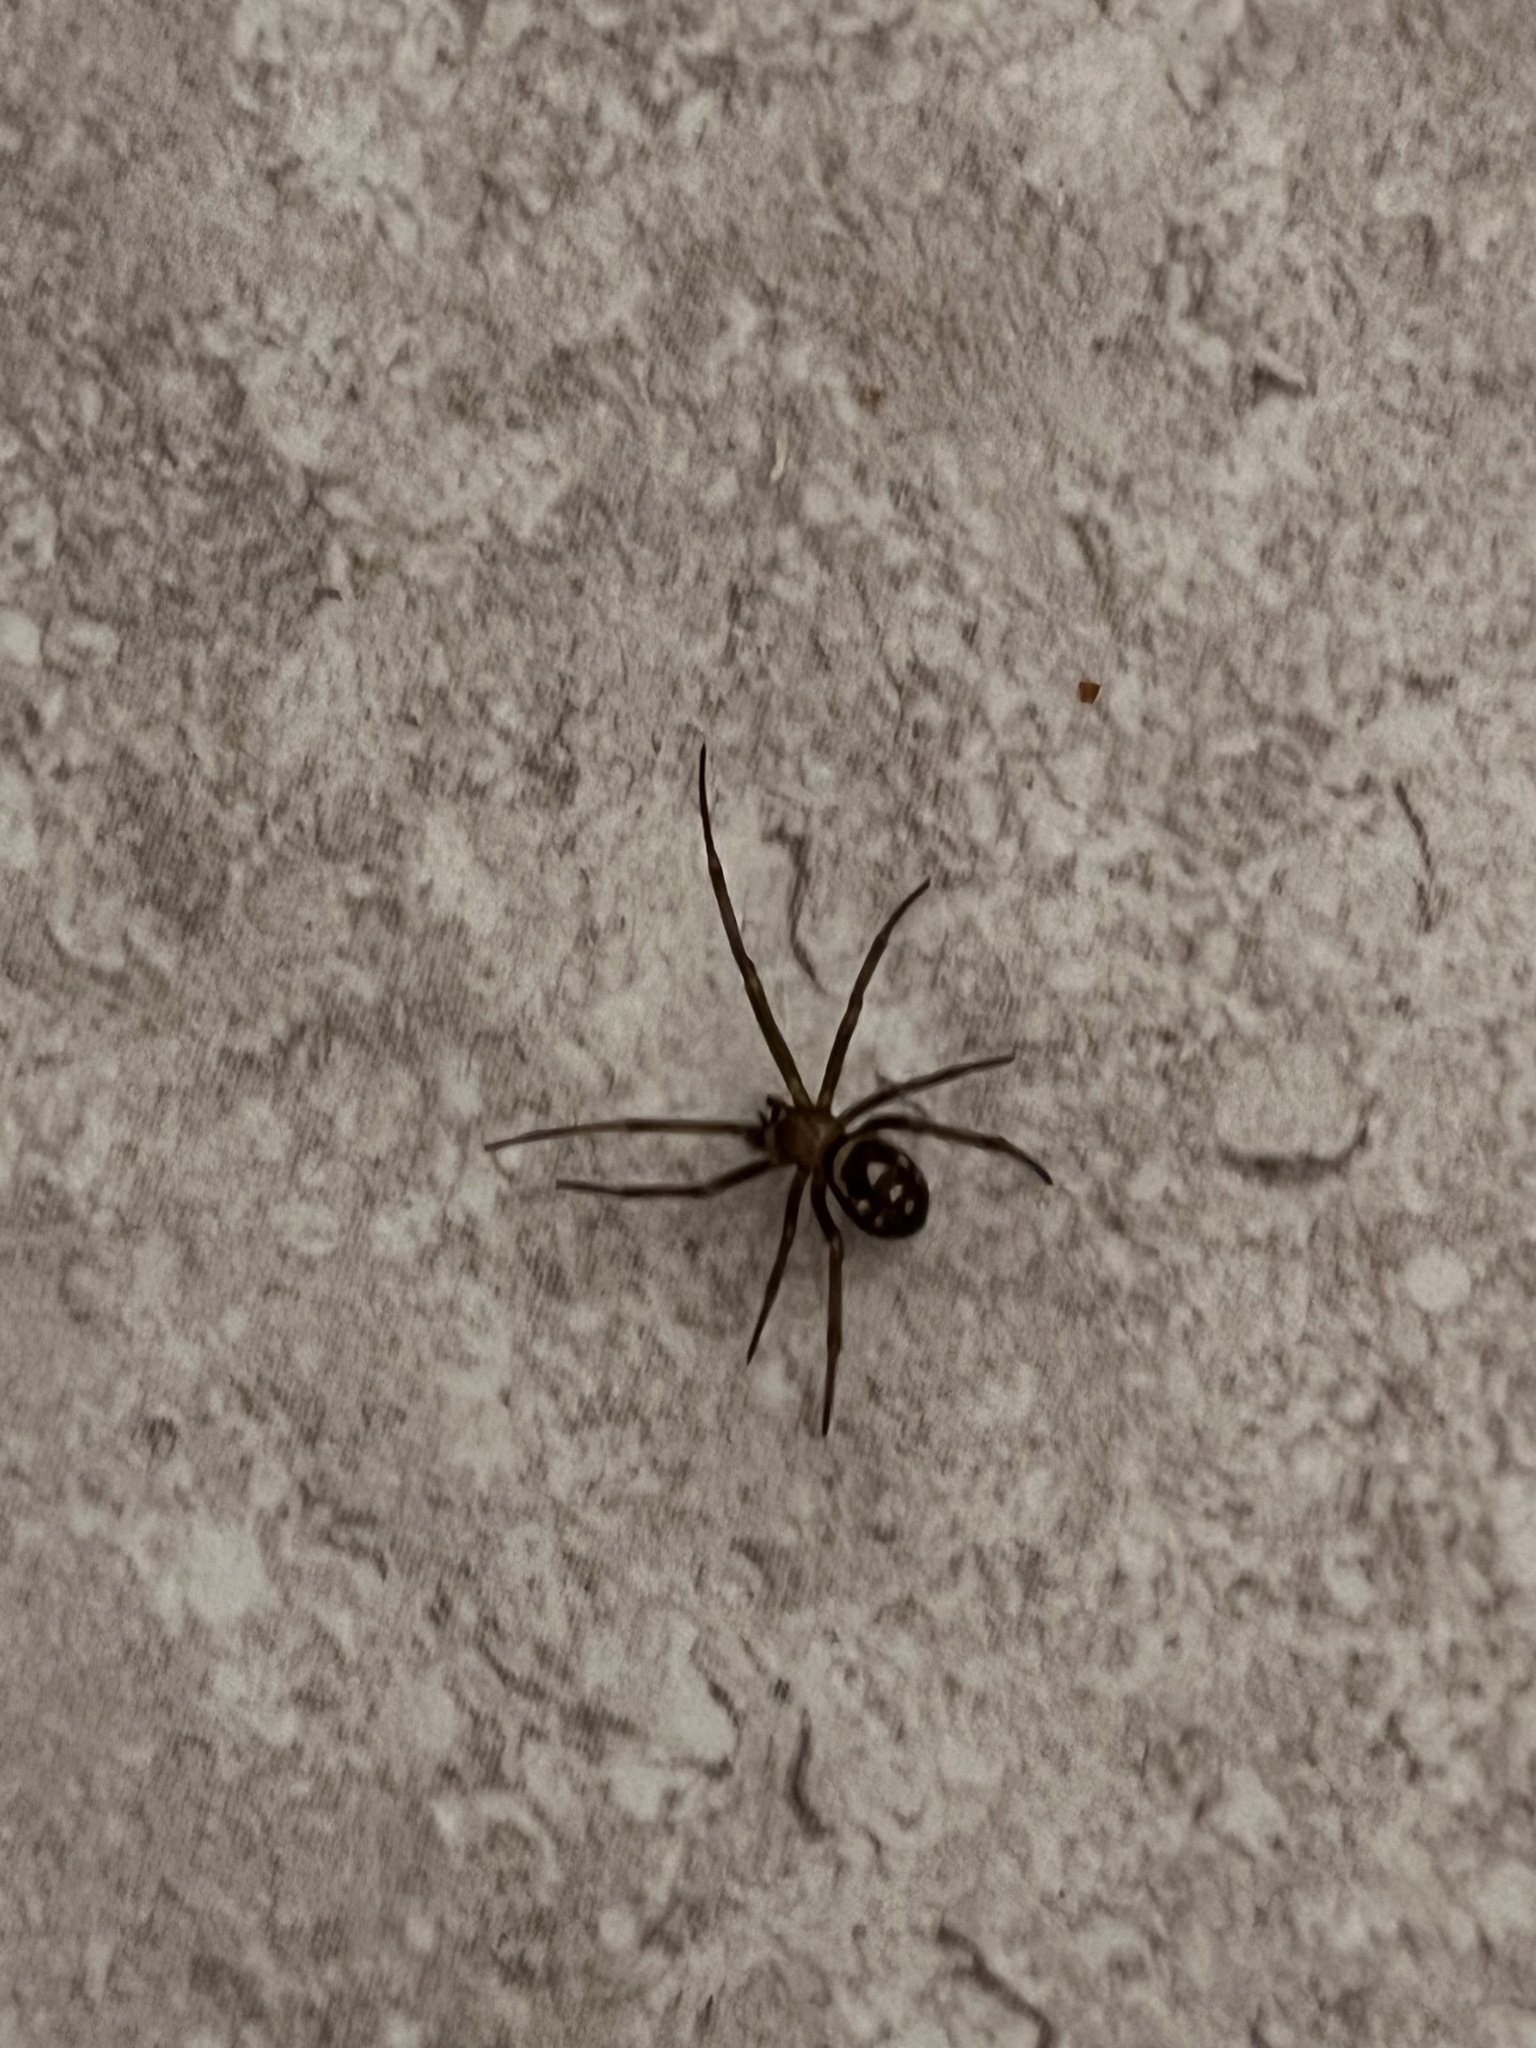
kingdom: Animalia
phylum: Arthropoda
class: Arachnida
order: Araneae
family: Theridiidae
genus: Steatoda
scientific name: Steatoda grossa
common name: False black widow
